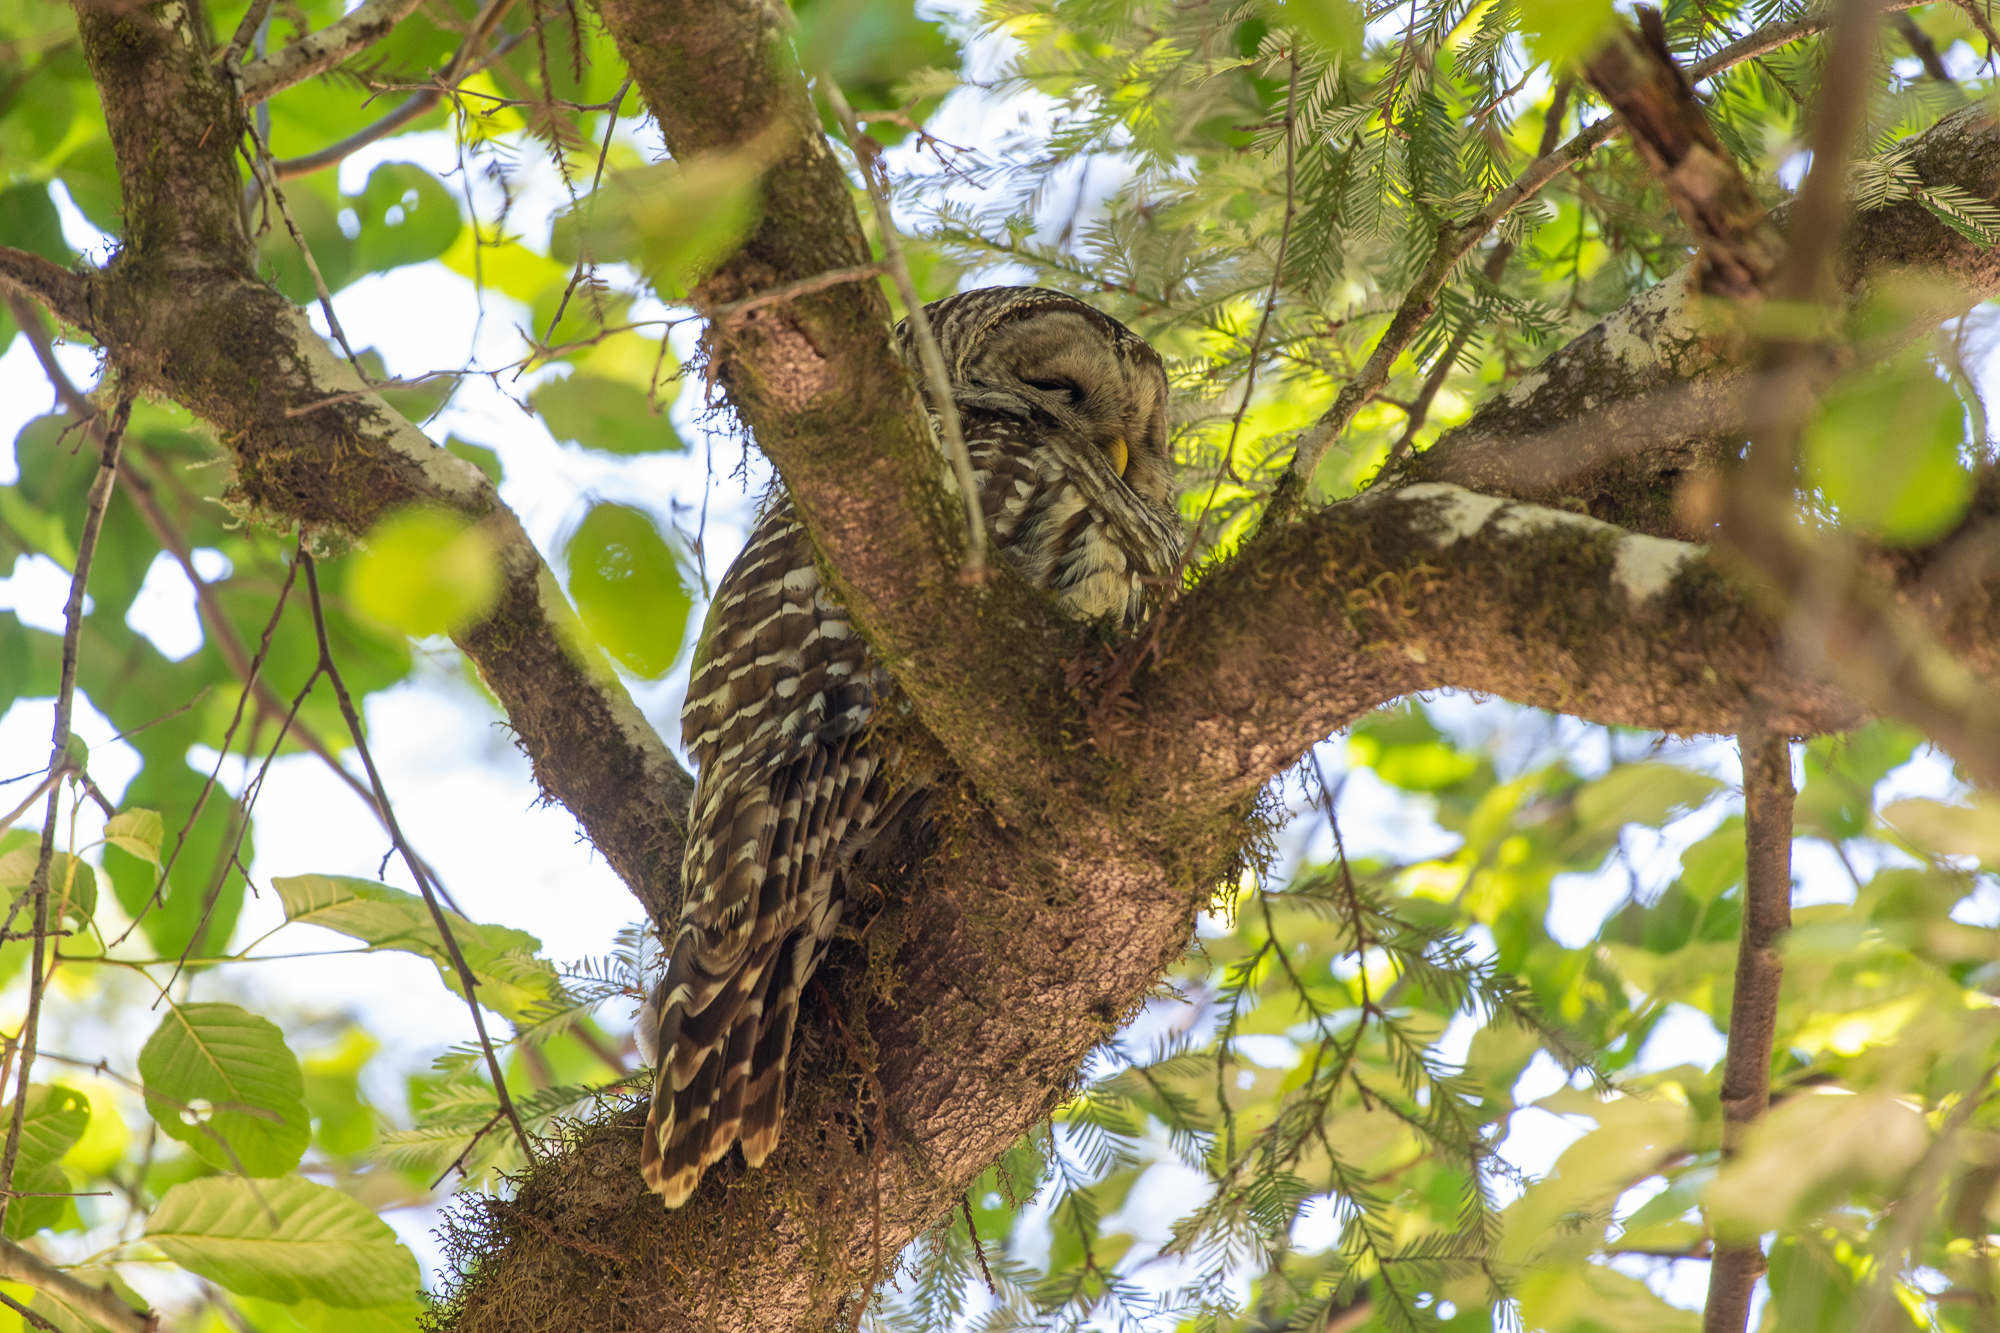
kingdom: Animalia
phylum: Chordata
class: Aves
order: Strigiformes
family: Strigidae
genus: Strix
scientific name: Strix varia
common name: Barred owl
